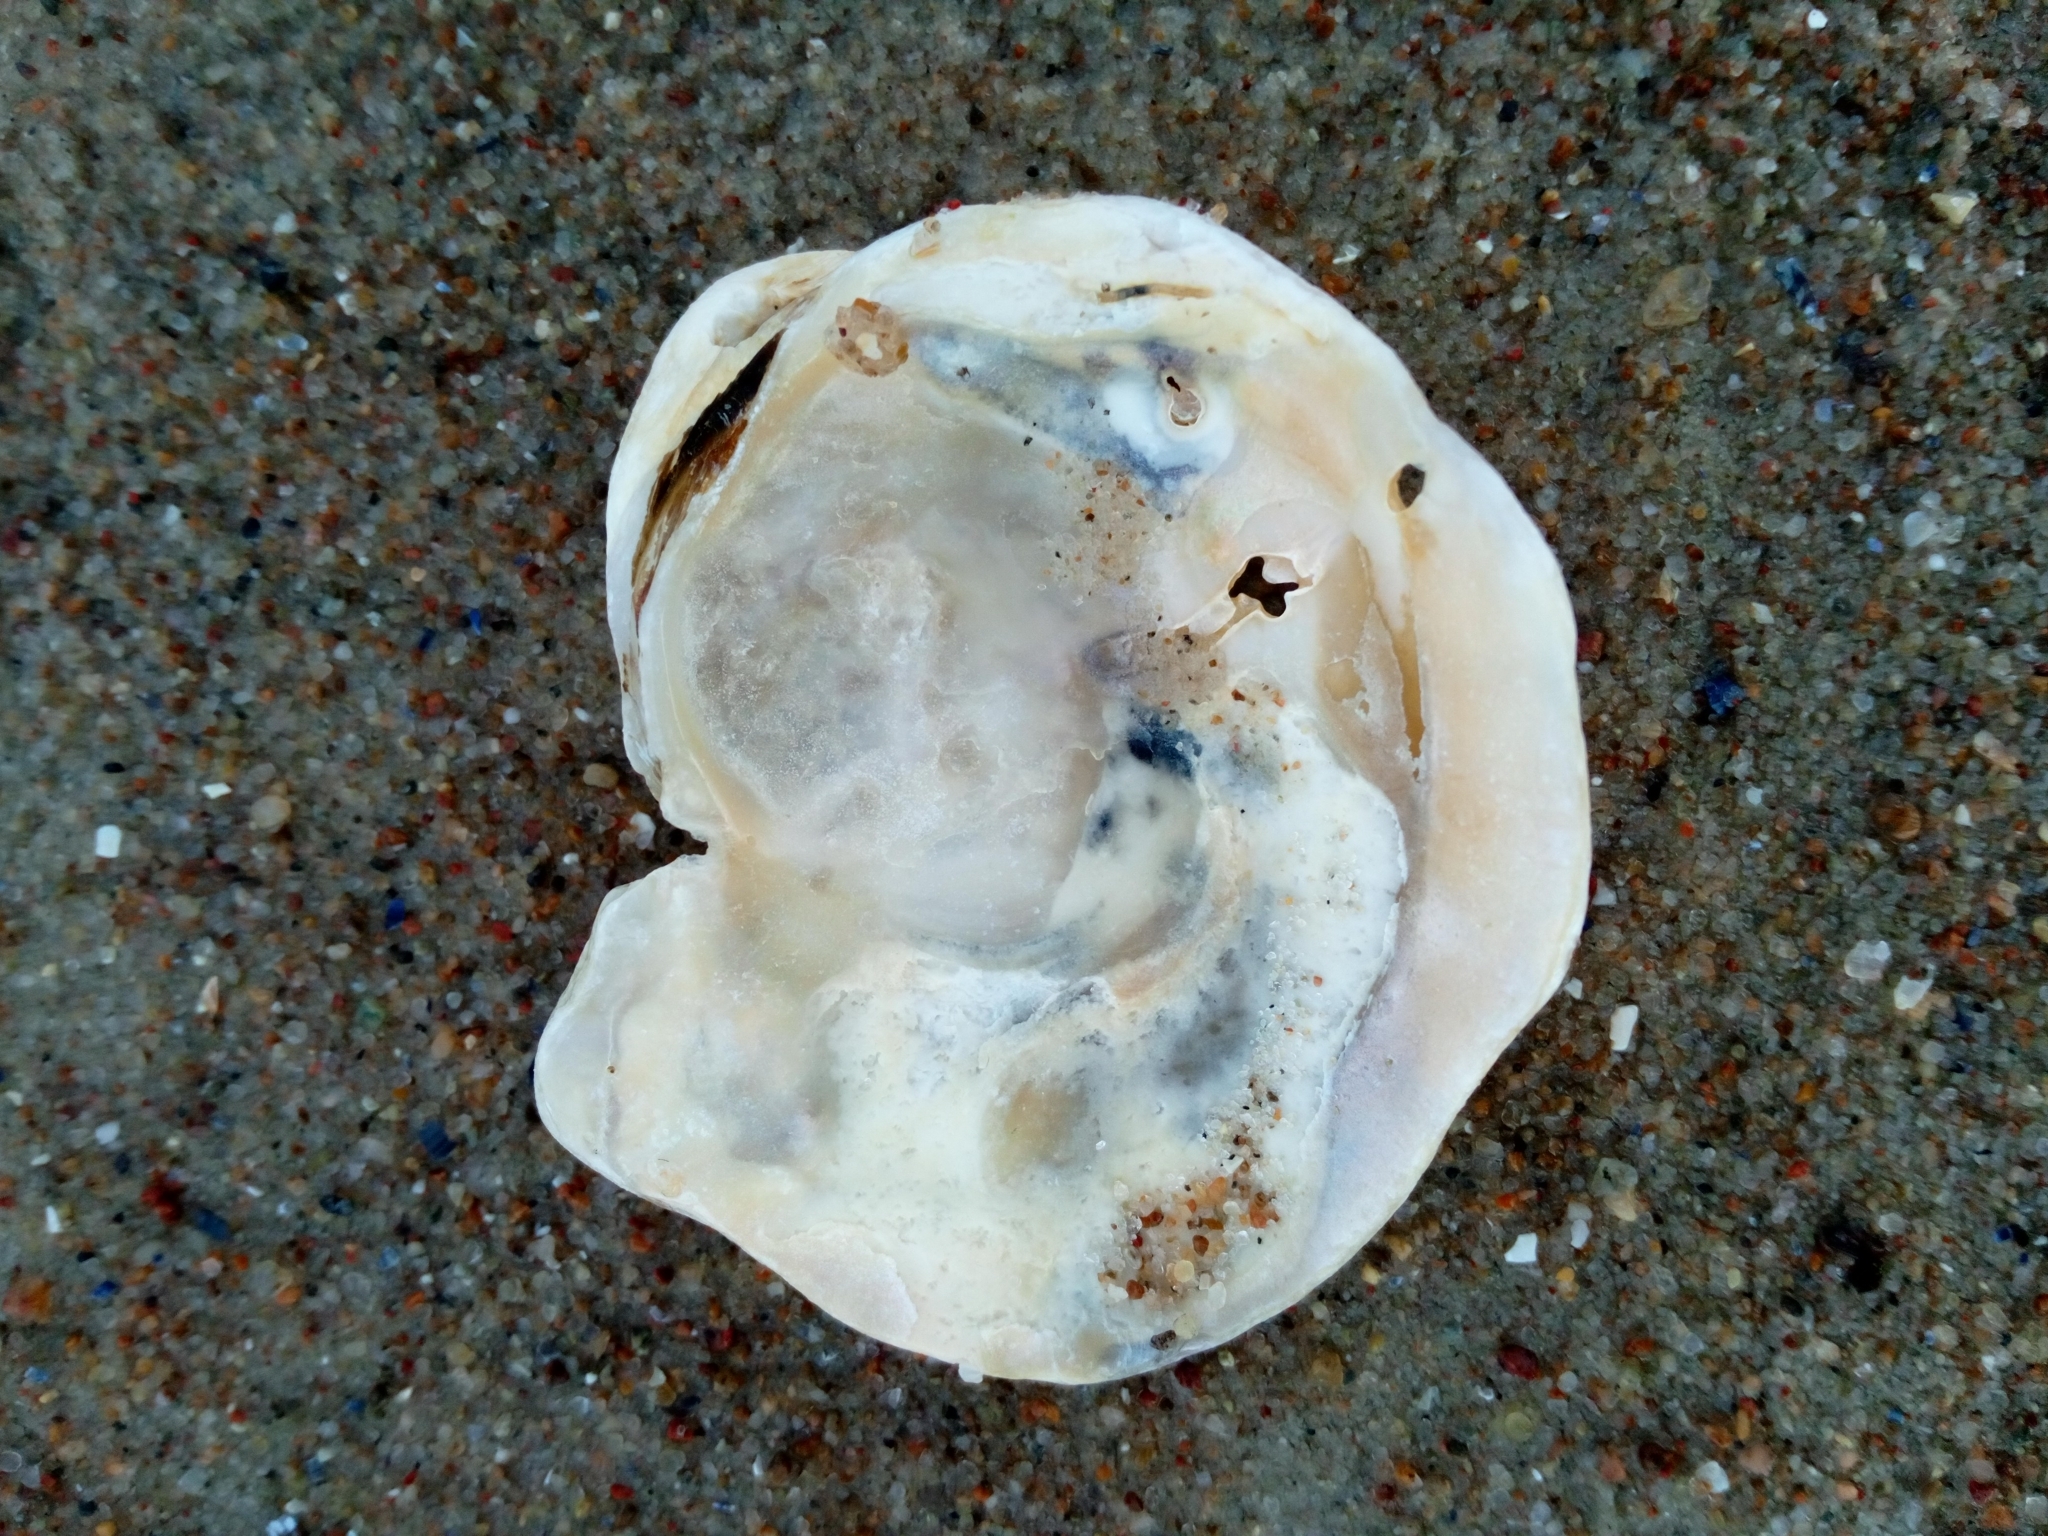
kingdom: Animalia
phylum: Mollusca
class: Bivalvia
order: Ostreida
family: Ostreidae
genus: Ostrea
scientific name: Ostrea edulis
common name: Flat oyster
